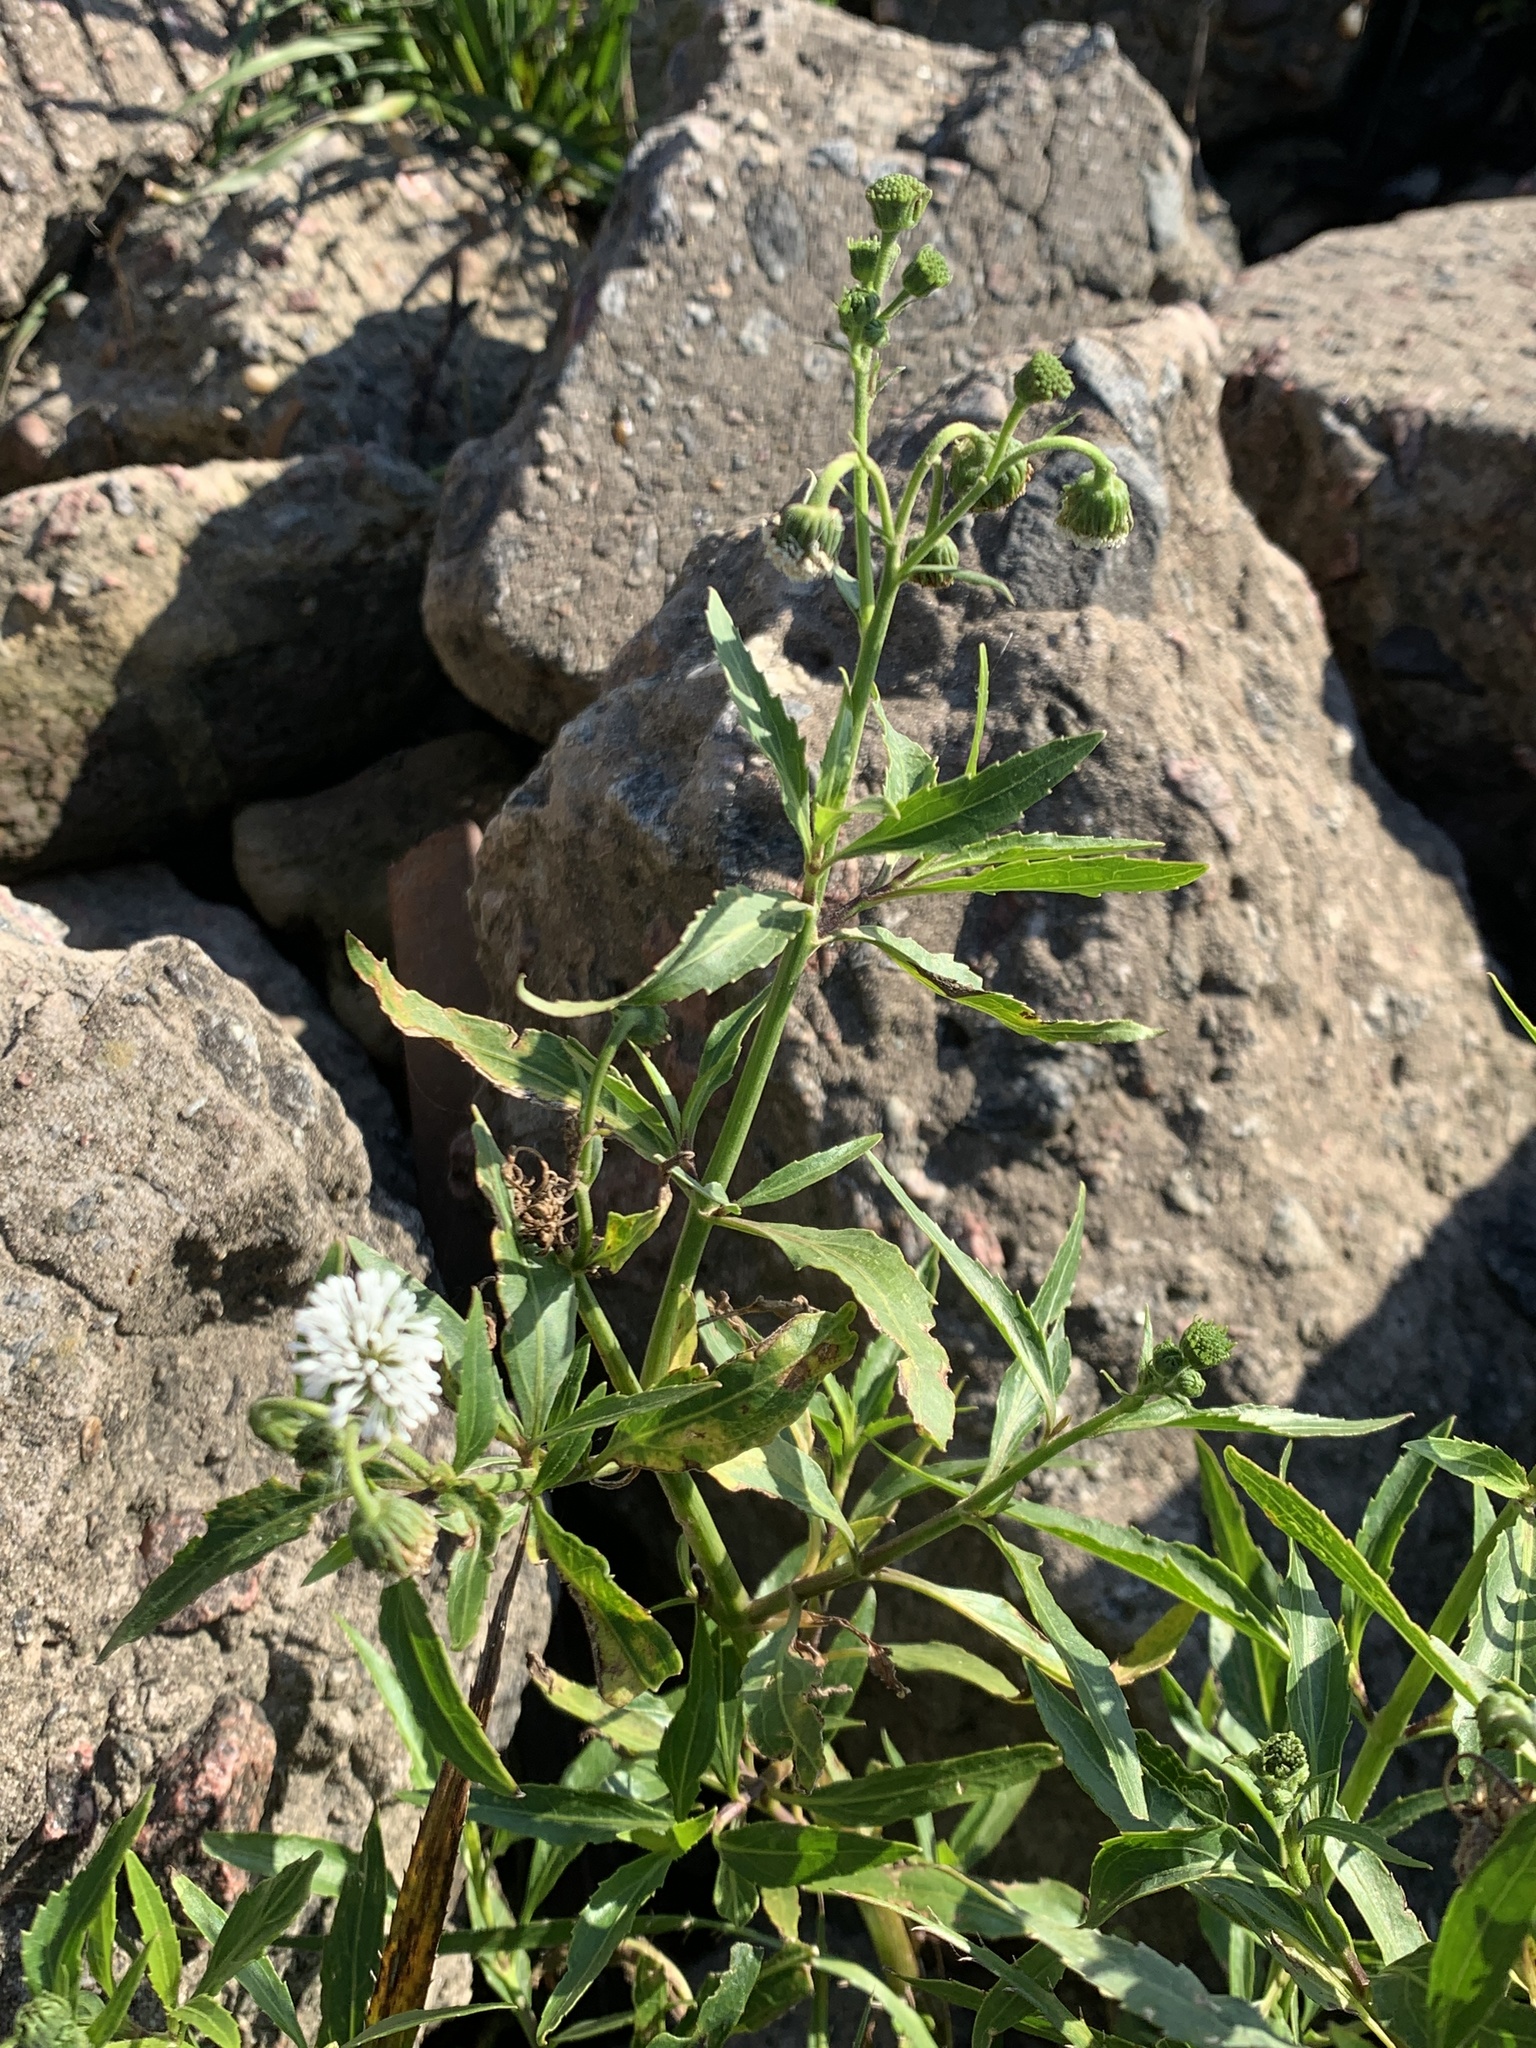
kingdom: Plantae
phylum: Tracheophyta
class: Magnoliopsida
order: Asterales
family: Asteraceae
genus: Gymnocoronis
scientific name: Gymnocoronis spilanthoides
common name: Senegal teaplant
